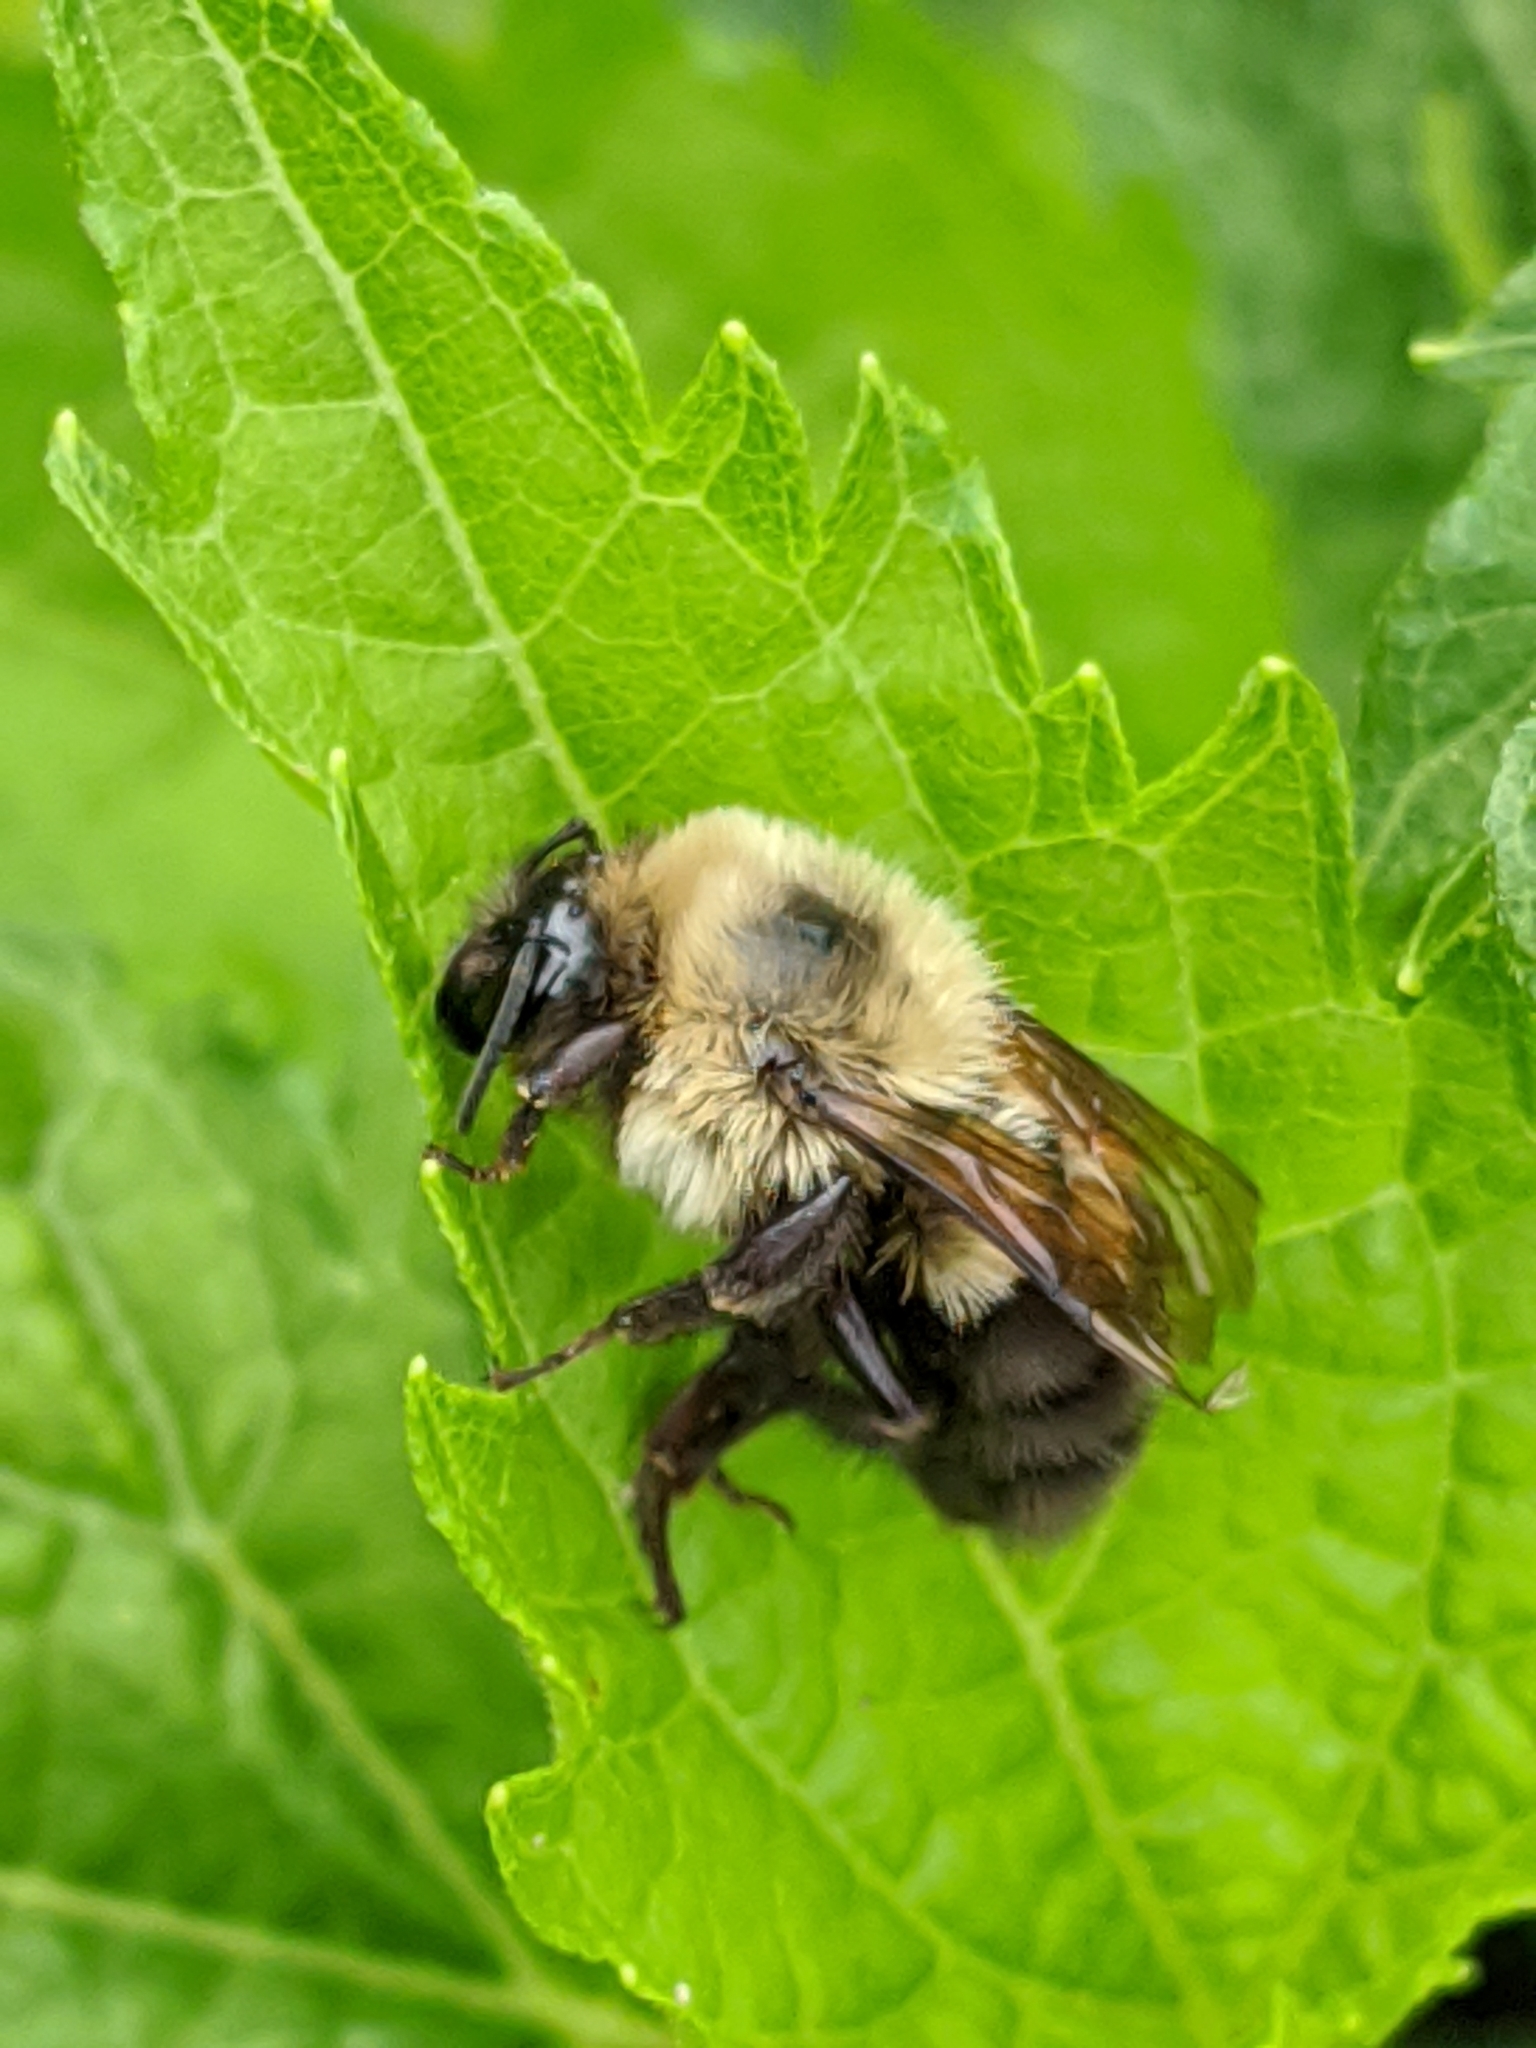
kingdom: Animalia
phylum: Arthropoda
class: Insecta
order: Hymenoptera
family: Apidae
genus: Bombus
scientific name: Bombus bimaculatus
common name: Two-spotted bumble bee
